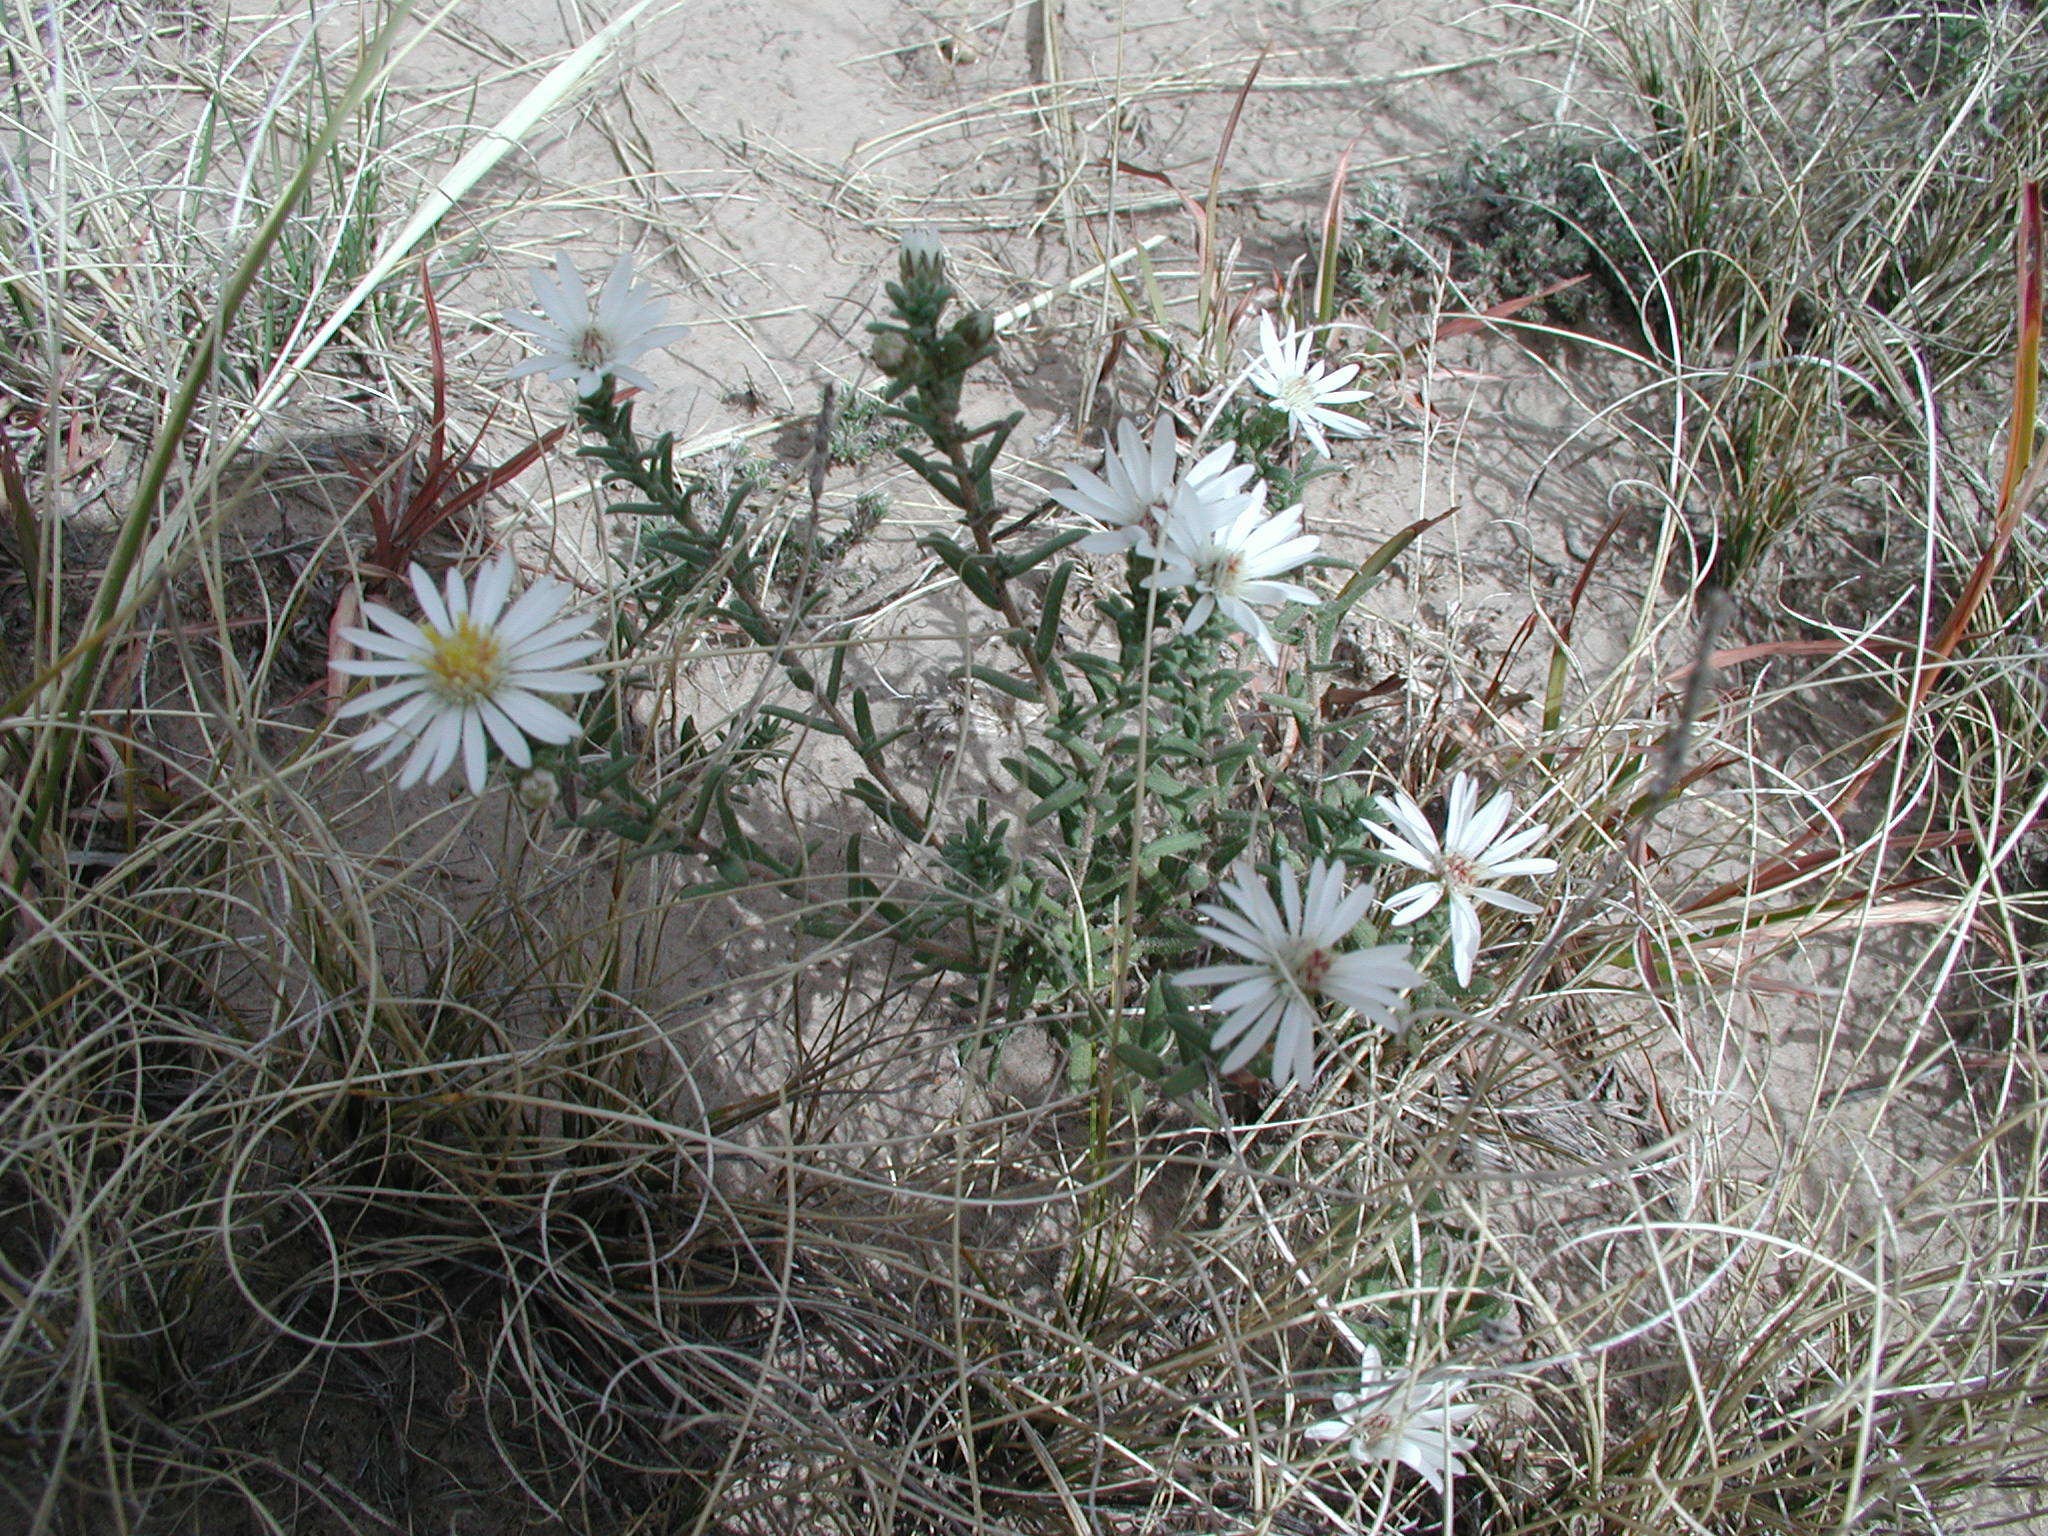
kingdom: Plantae
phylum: Tracheophyta
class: Magnoliopsida
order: Asterales
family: Asteraceae
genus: Symphyotrichum
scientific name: Symphyotrichum falcatum
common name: Creeping white prairie aster
